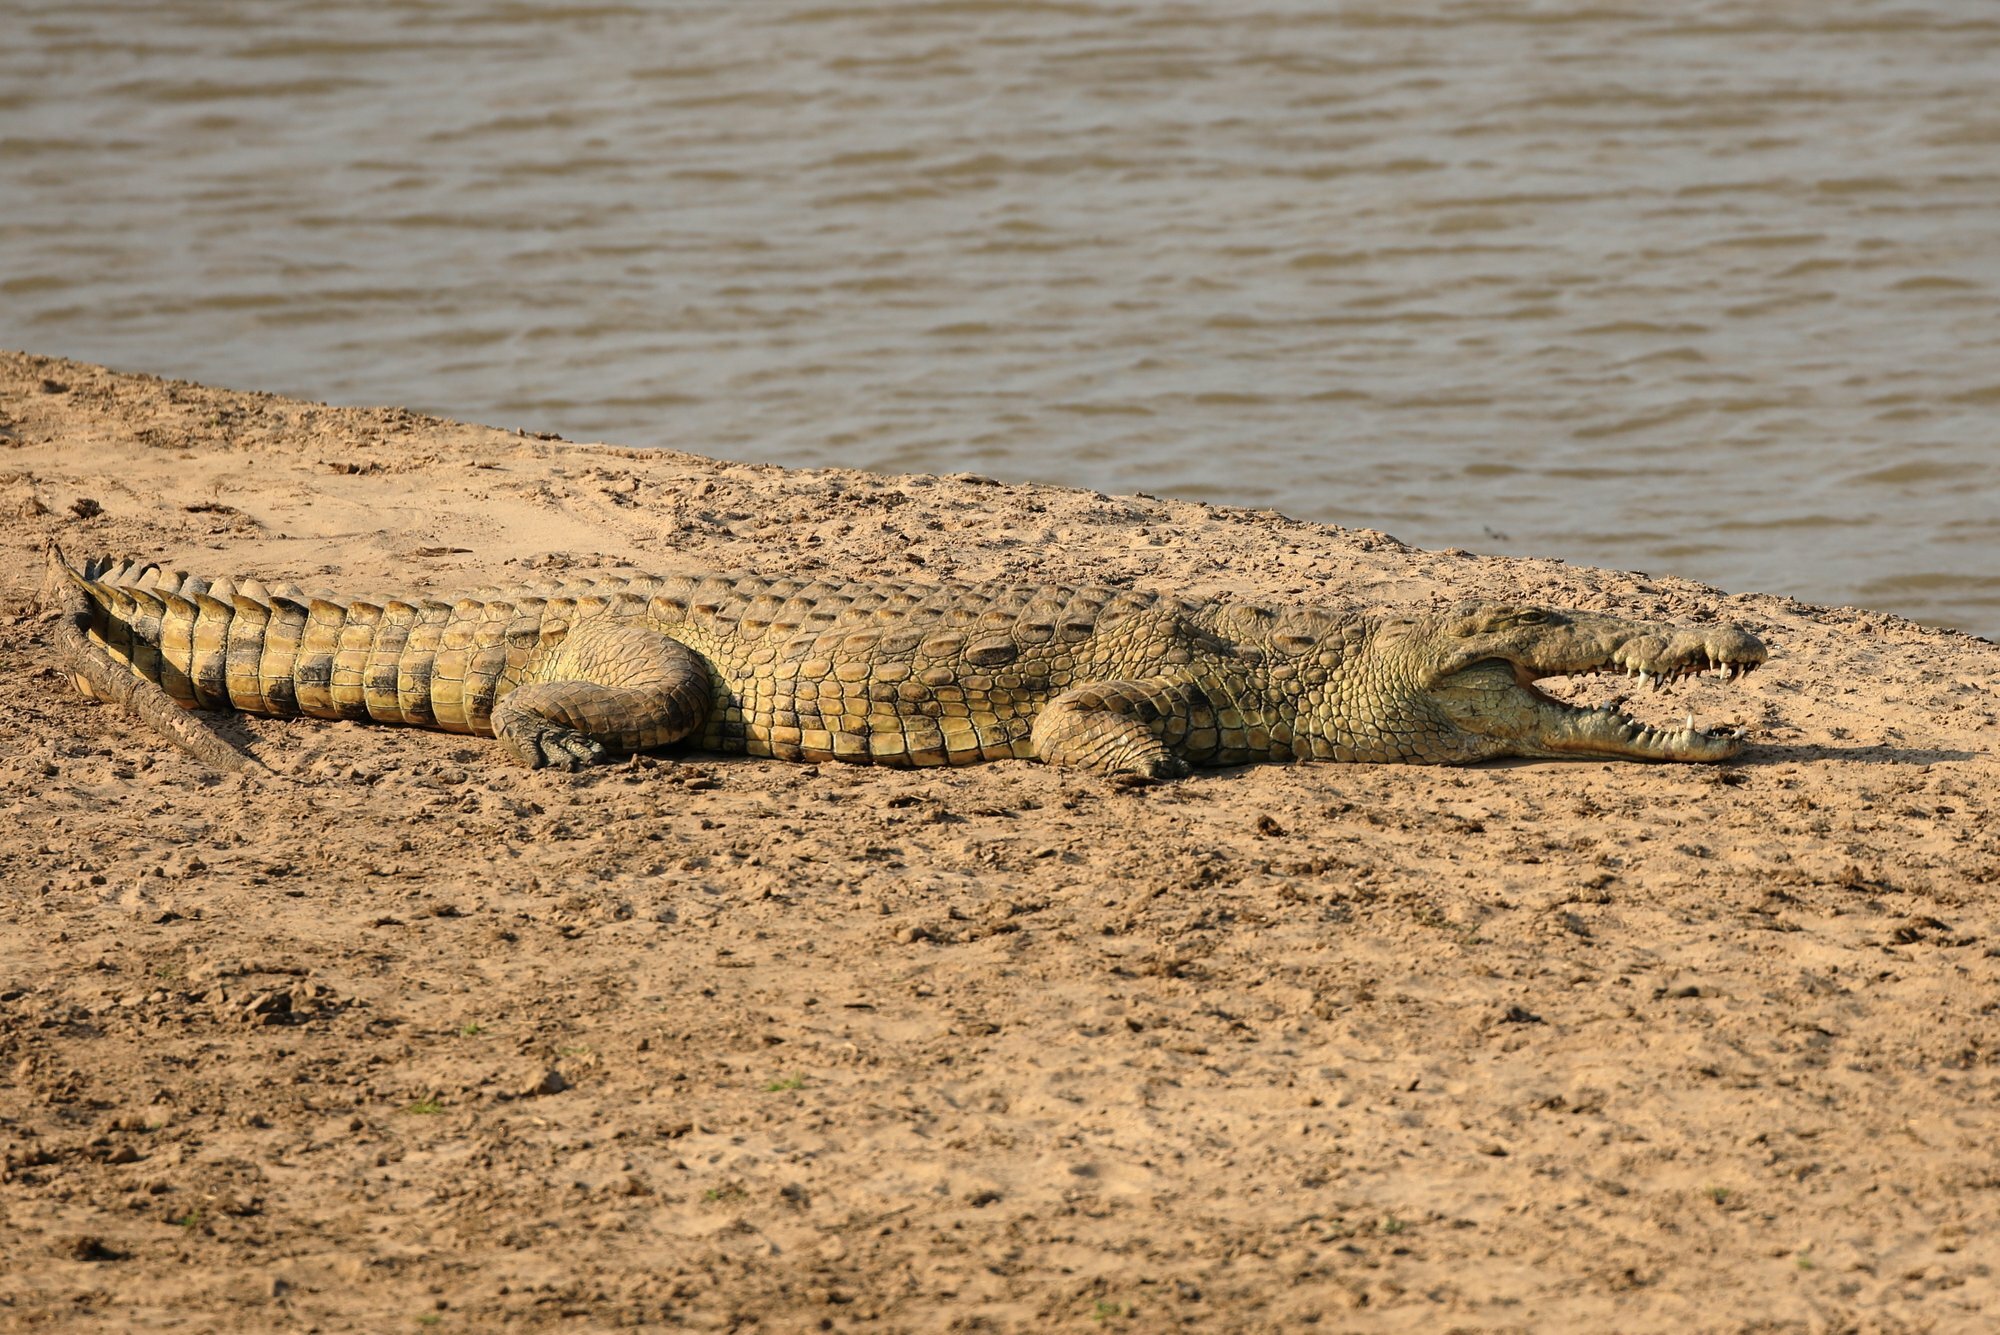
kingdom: Animalia
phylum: Chordata
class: Crocodylia
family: Crocodylidae
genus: Crocodylus
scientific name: Crocodylus niloticus
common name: Nile crocodile
